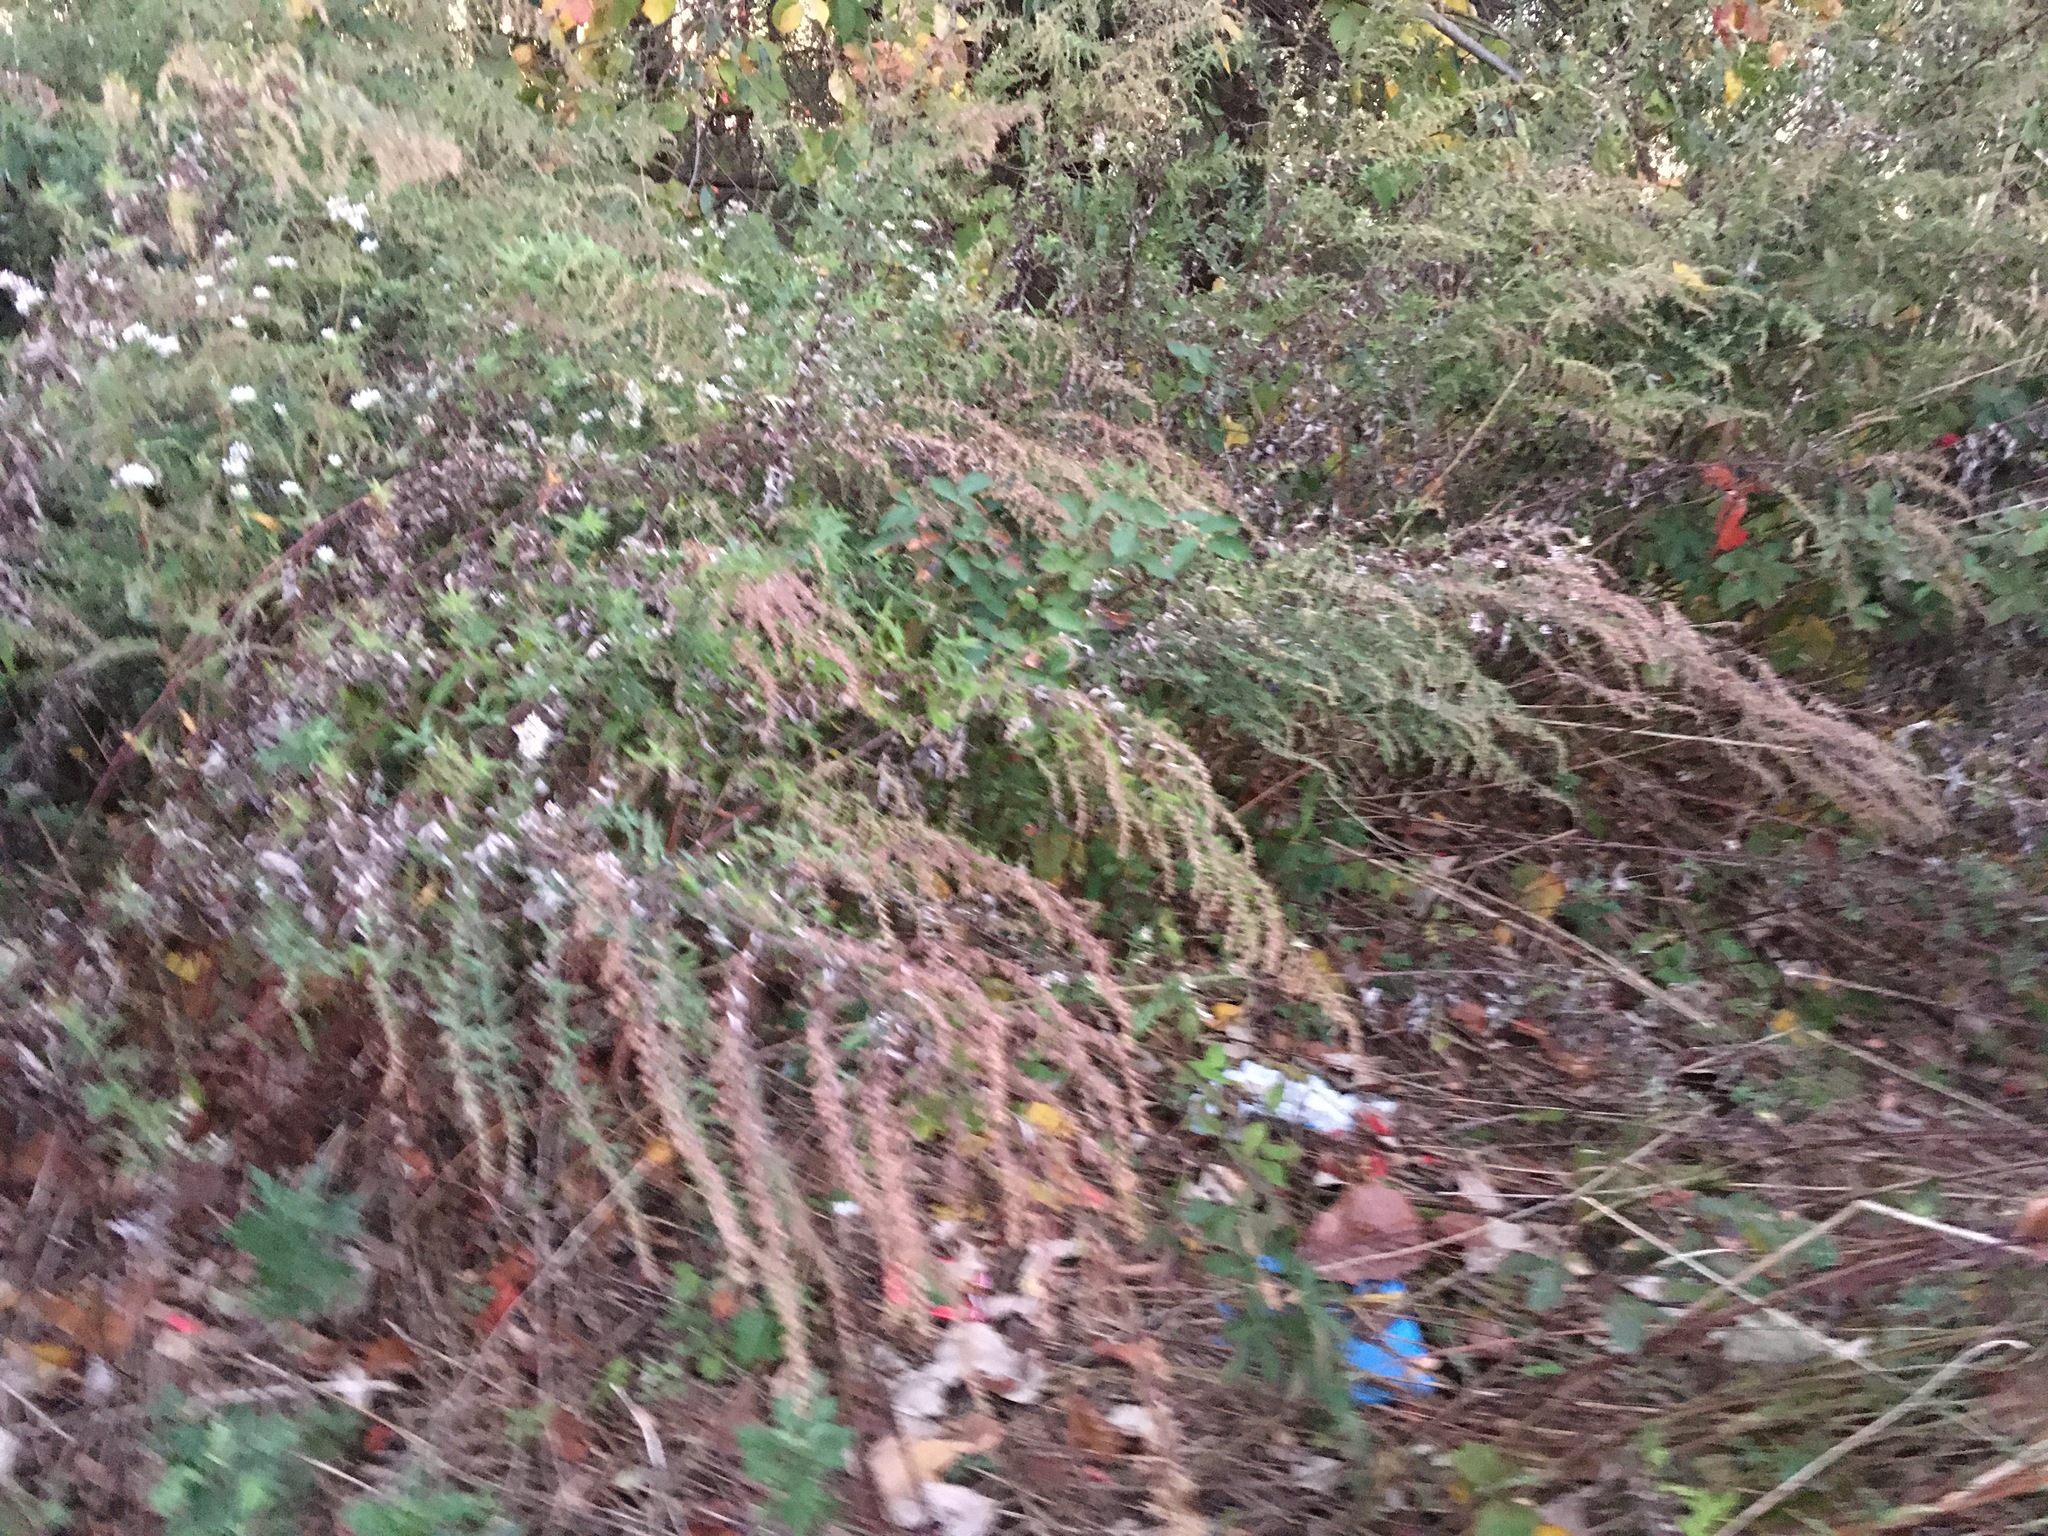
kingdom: Plantae
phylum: Tracheophyta
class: Magnoliopsida
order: Asterales
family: Asteraceae
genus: Artemisia
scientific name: Artemisia vulgaris
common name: Mugwort
